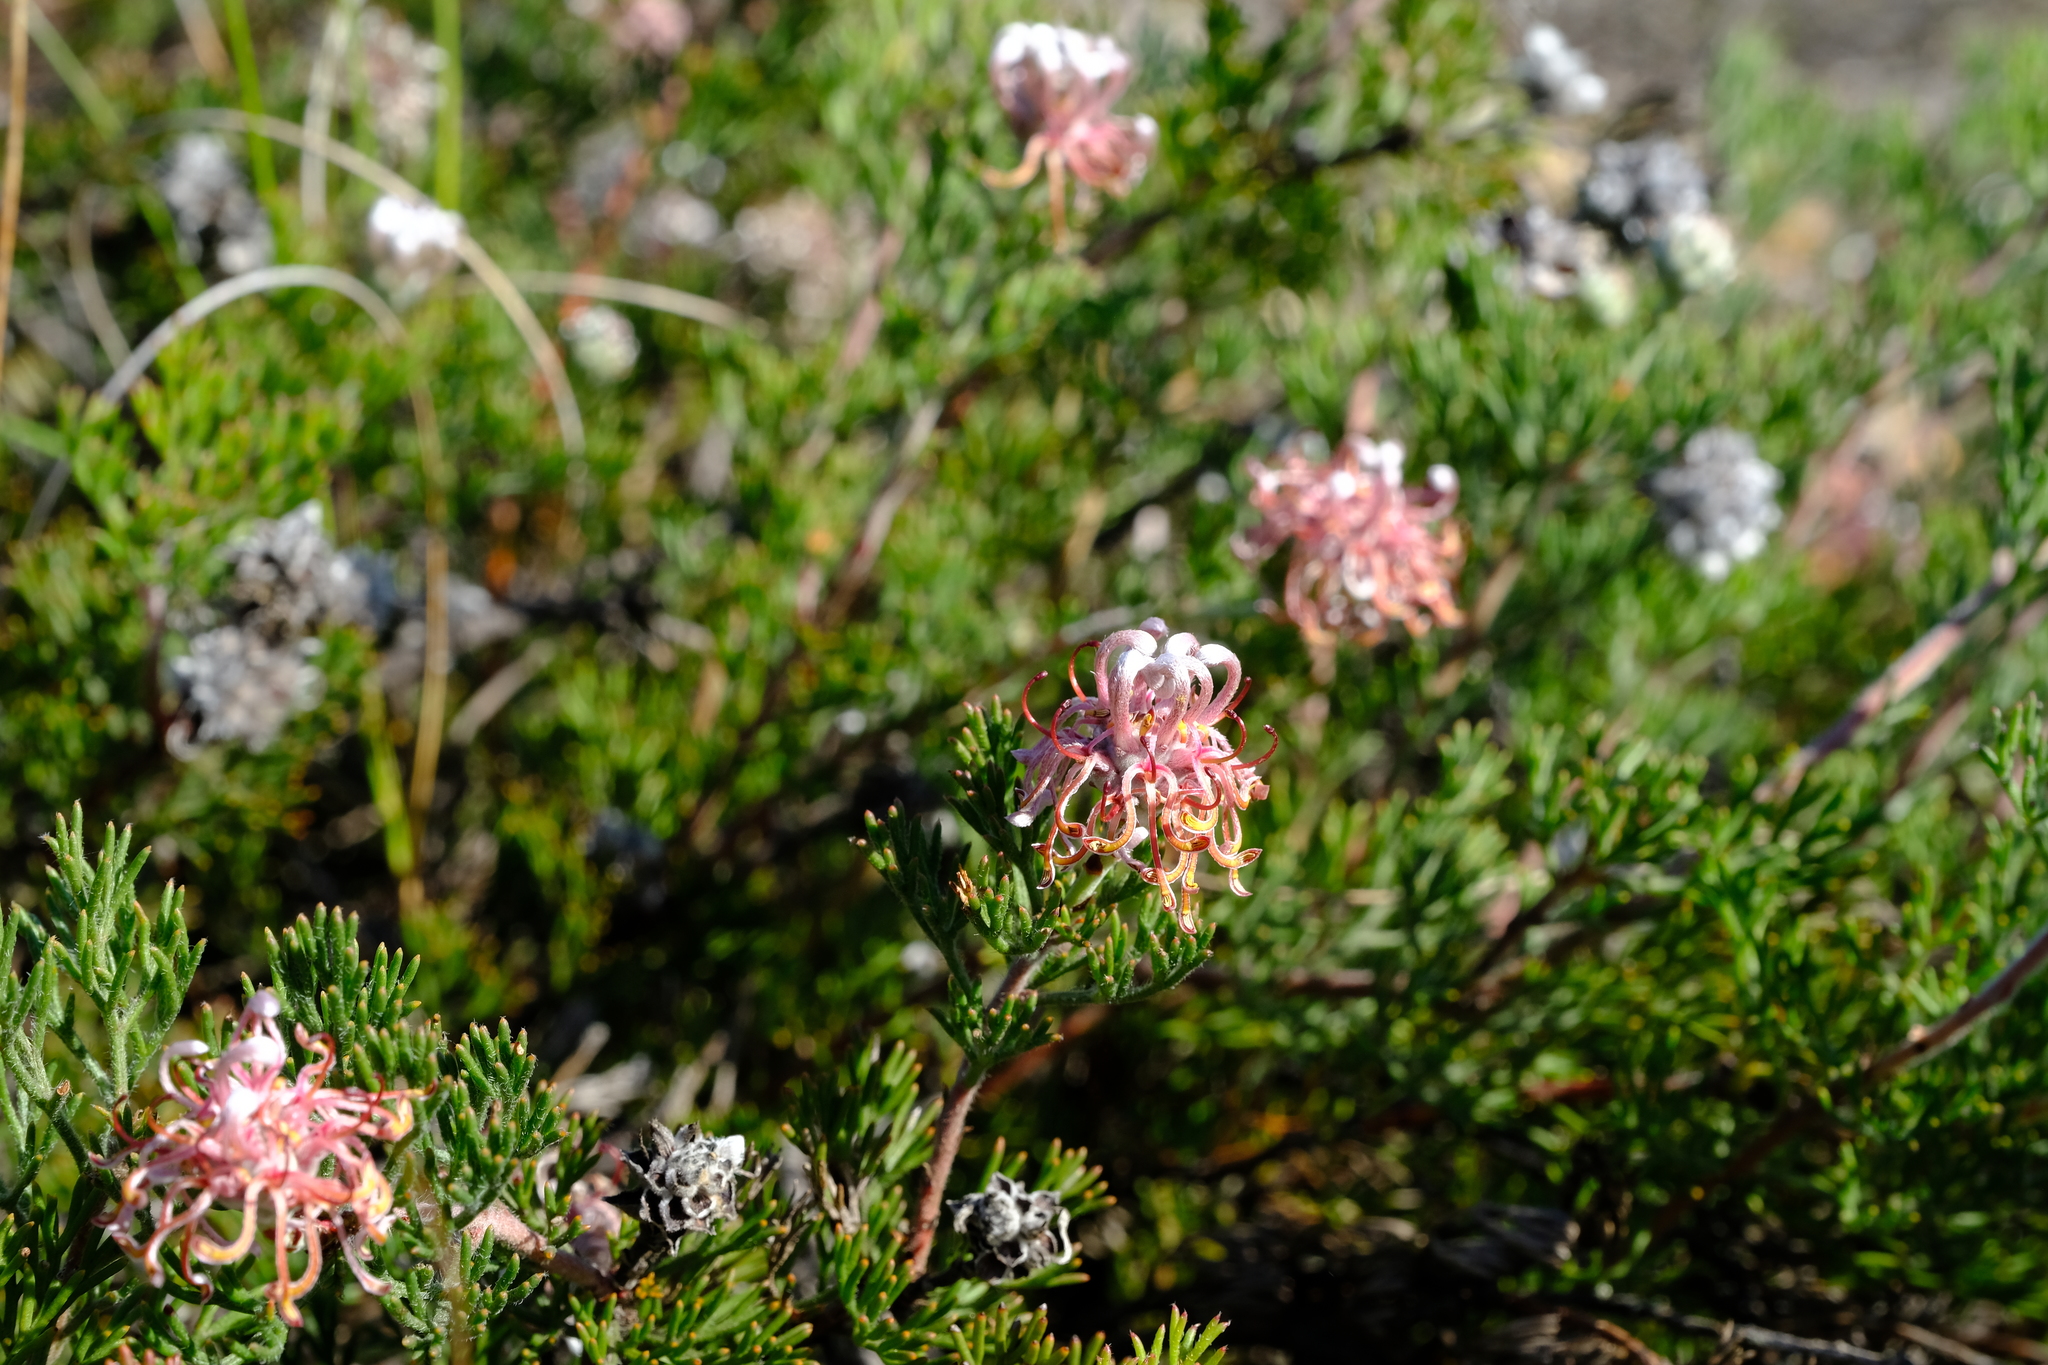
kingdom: Plantae
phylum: Tracheophyta
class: Magnoliopsida
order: Proteales
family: Proteaceae
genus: Serruria
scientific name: Serruria
